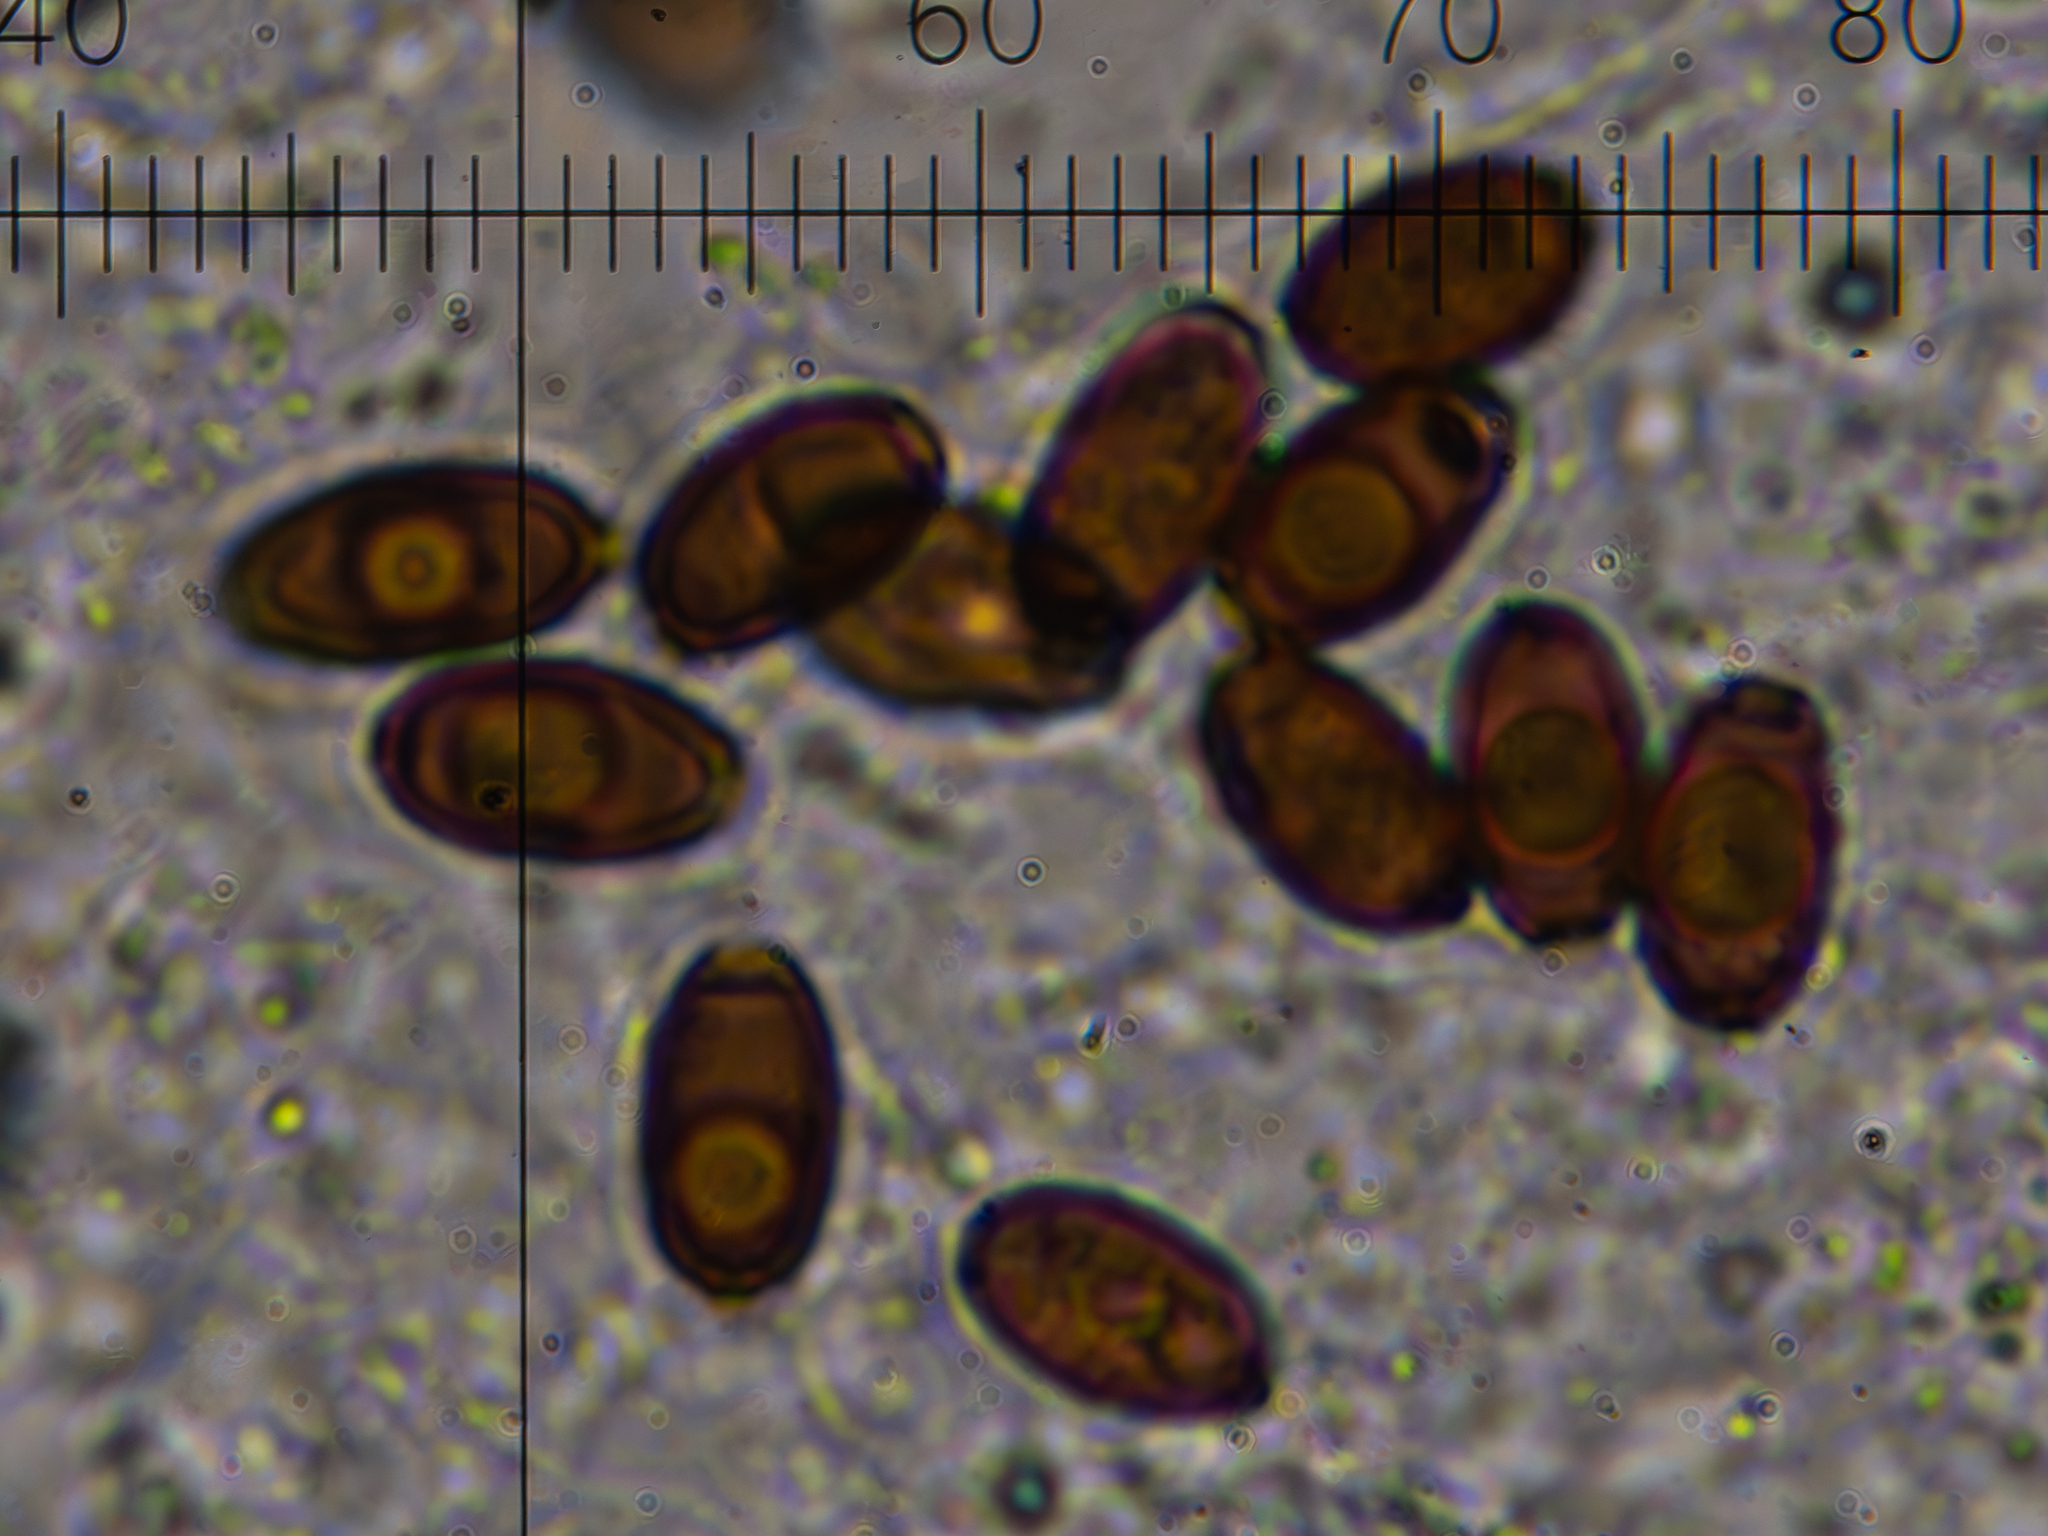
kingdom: Fungi
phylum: Basidiomycota
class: Agaricomycetes
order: Agaricales
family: Psathyrellaceae
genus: Coprinopsis
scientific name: Coprinopsis atramentaria
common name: Common ink-cap
